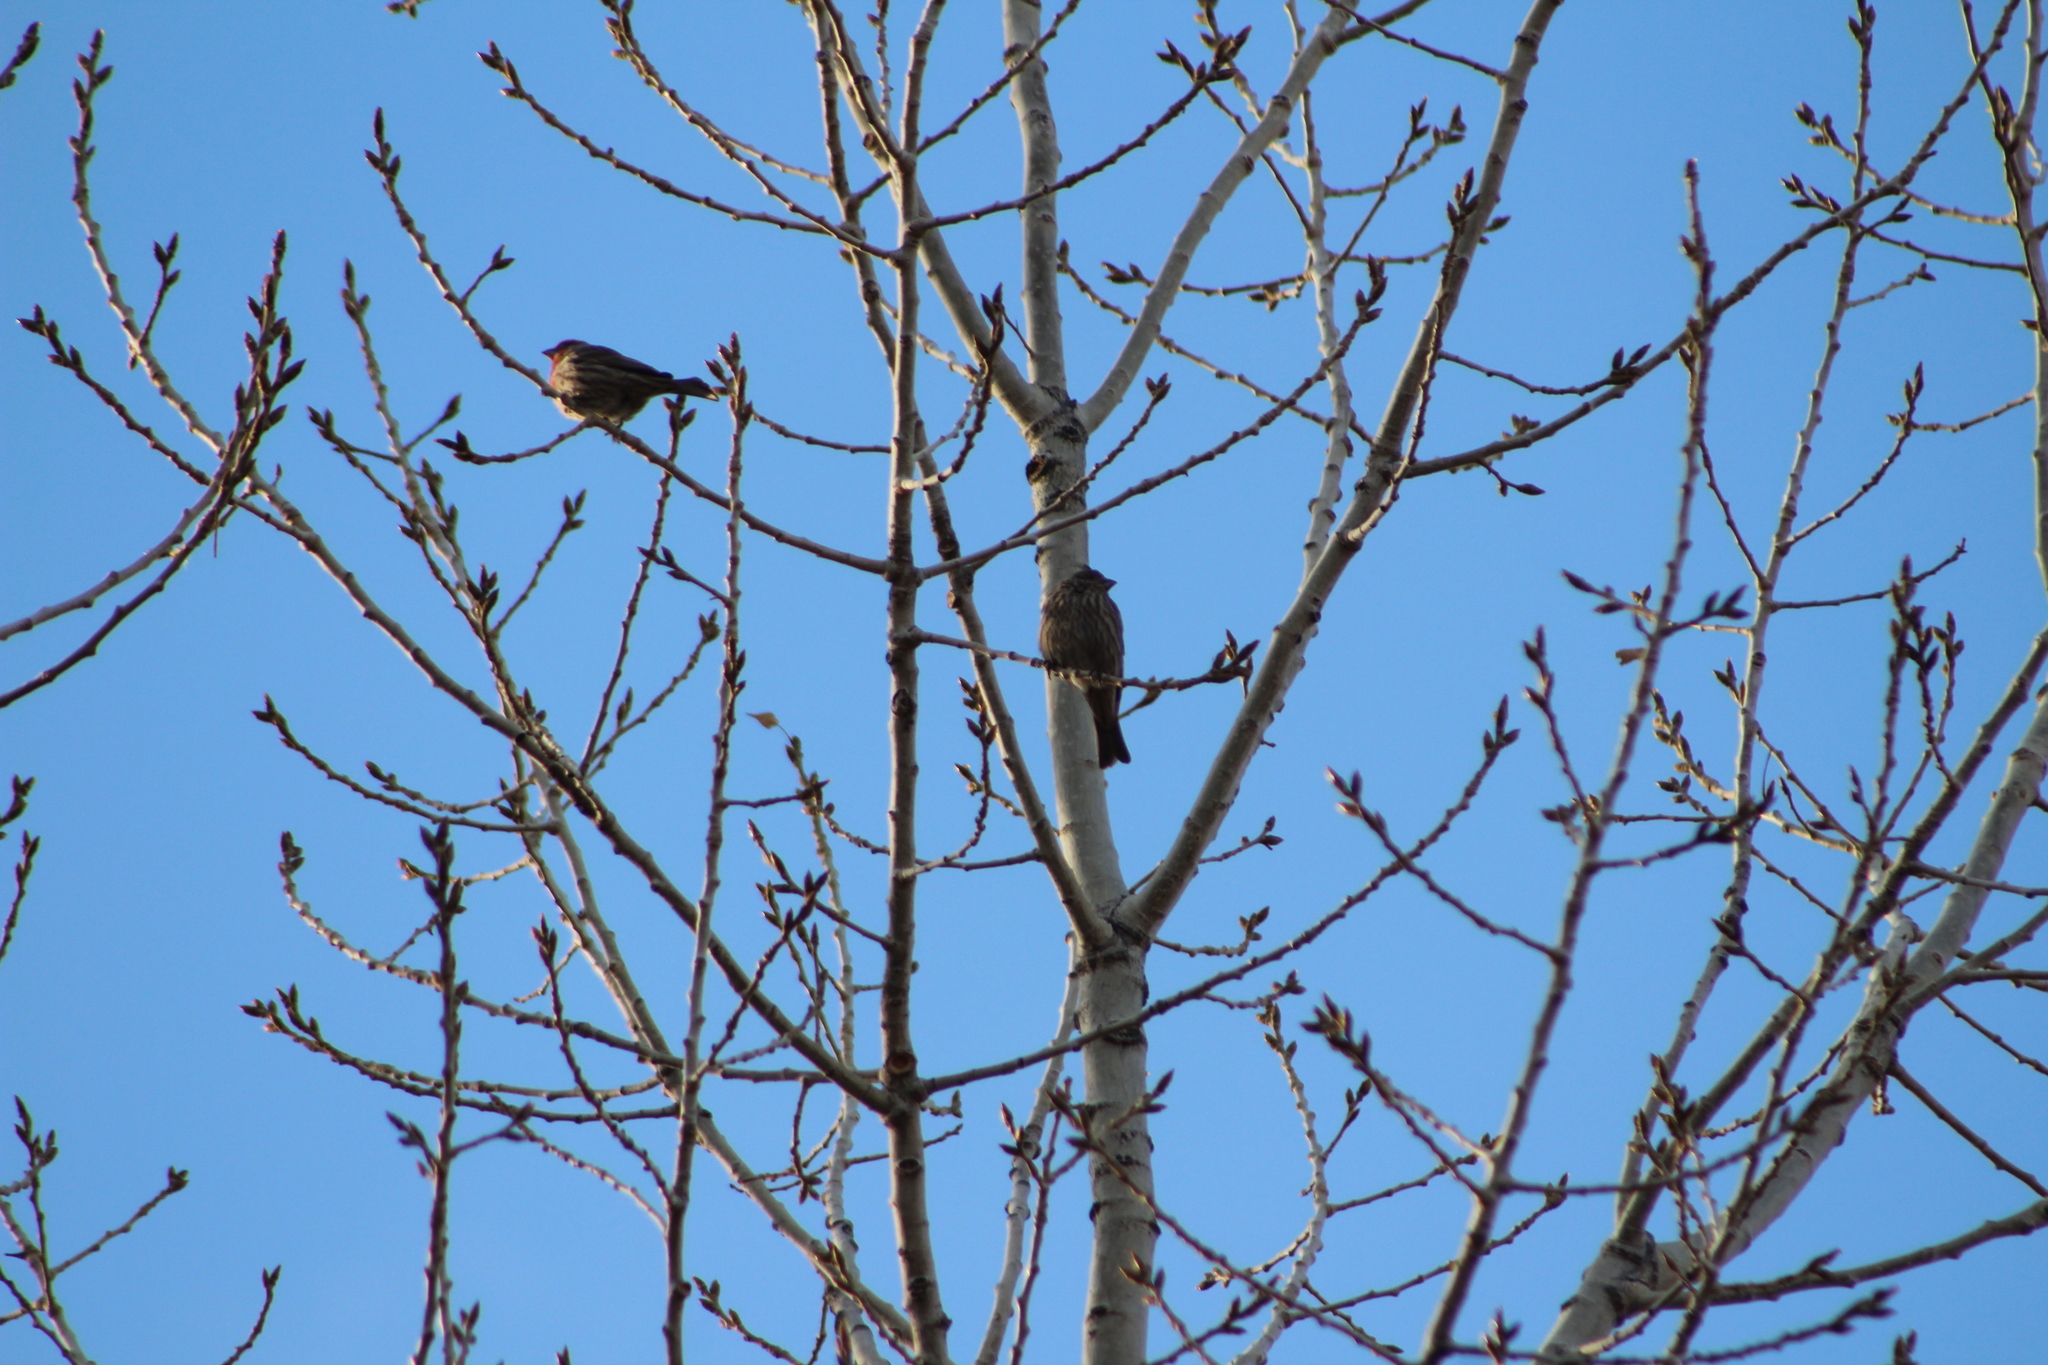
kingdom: Animalia
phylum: Chordata
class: Aves
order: Passeriformes
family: Fringillidae
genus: Haemorhous
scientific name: Haemorhous mexicanus
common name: House finch
